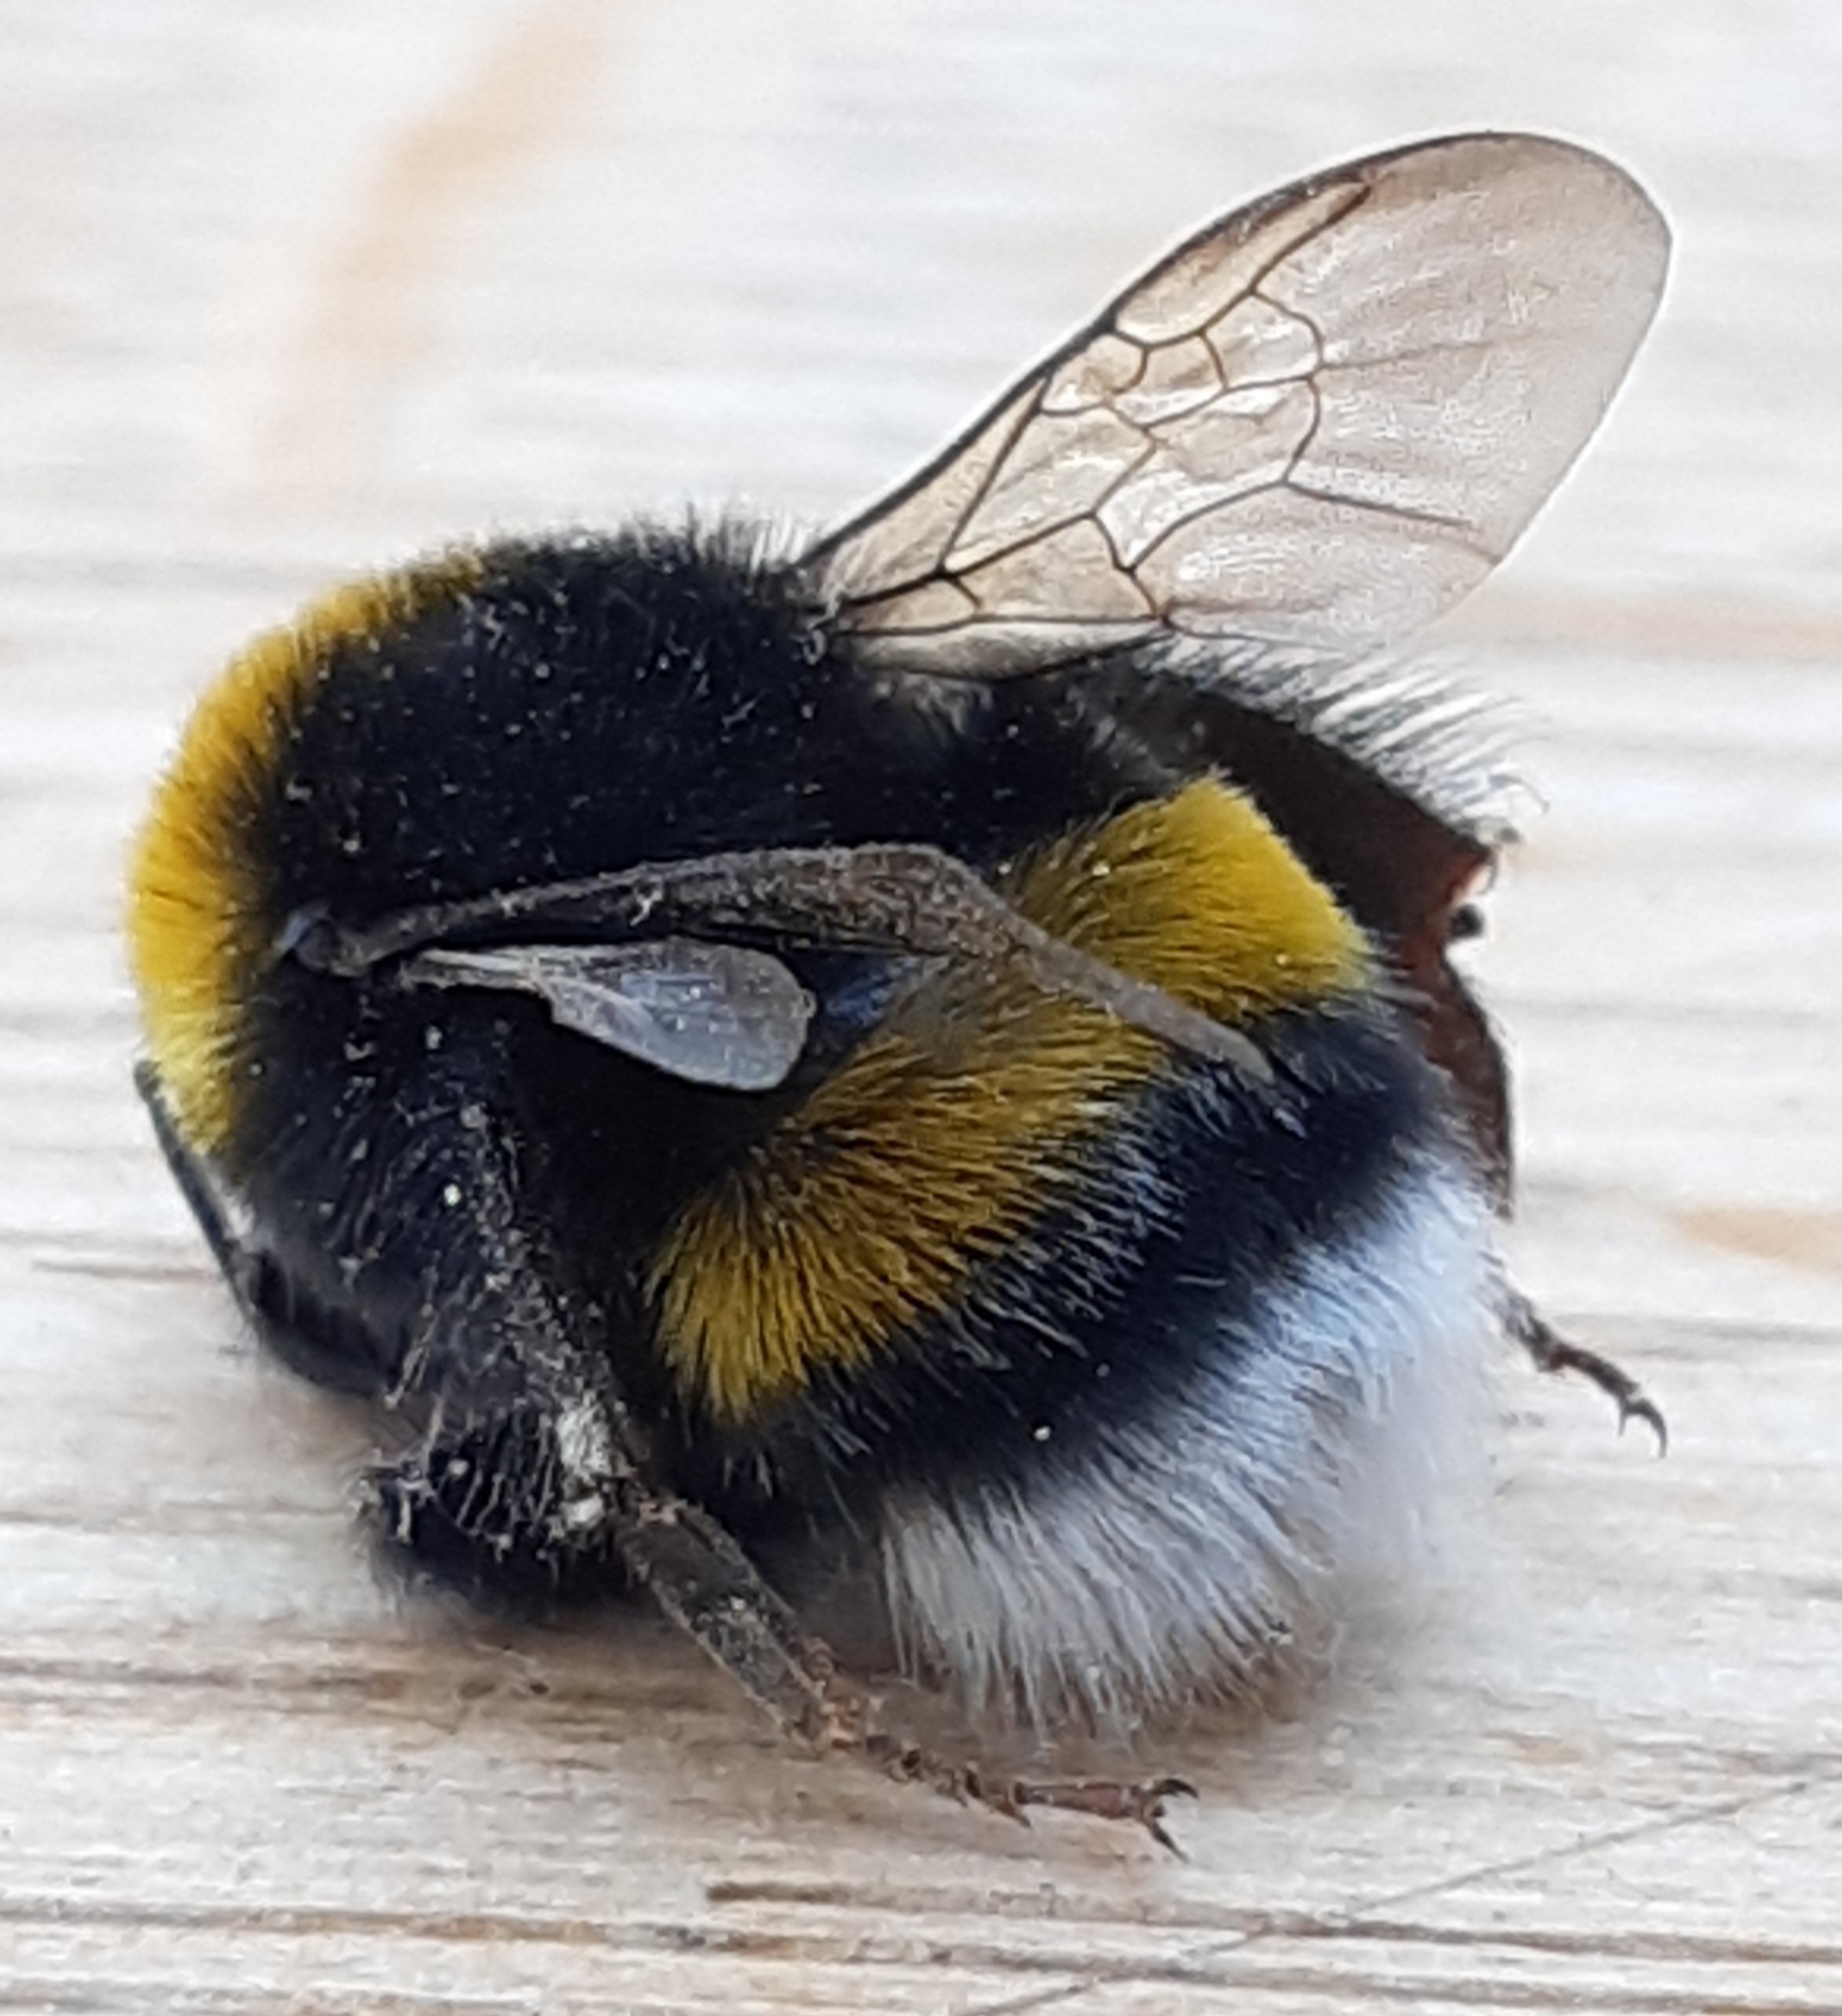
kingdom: Animalia
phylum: Arthropoda
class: Insecta
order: Hymenoptera
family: Apidae
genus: Bombus
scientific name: Bombus lucorum
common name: White-tailed bumblebee
